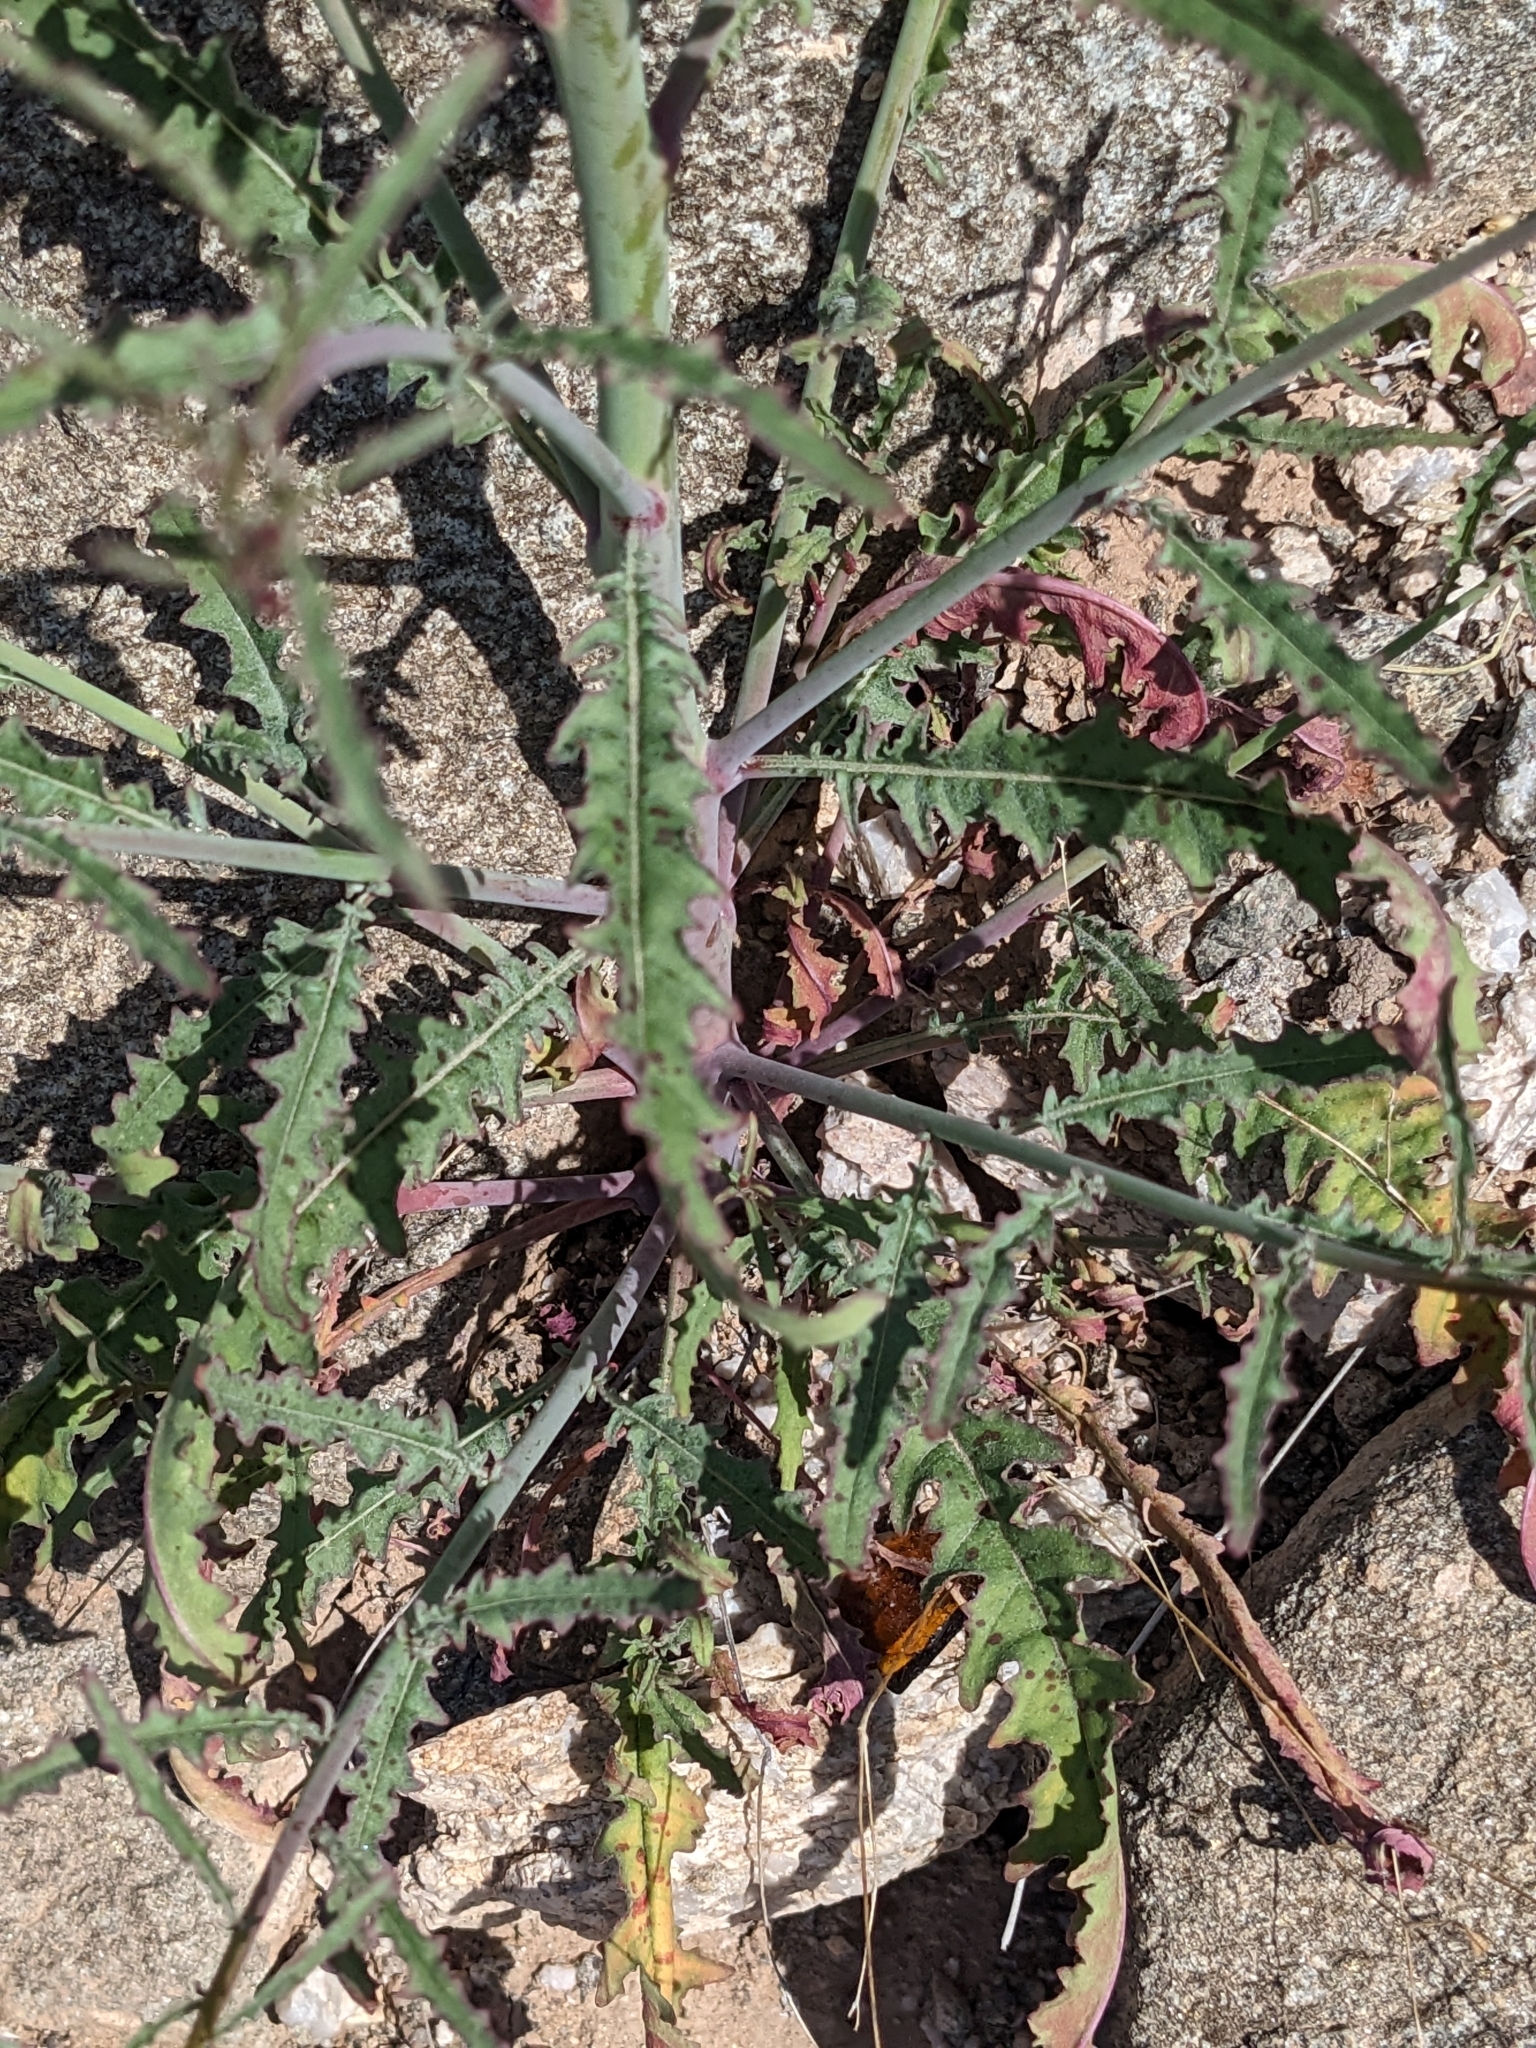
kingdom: Plantae
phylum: Tracheophyta
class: Magnoliopsida
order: Myrtales
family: Onagraceae
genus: Eulobus
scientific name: Eulobus californicus
